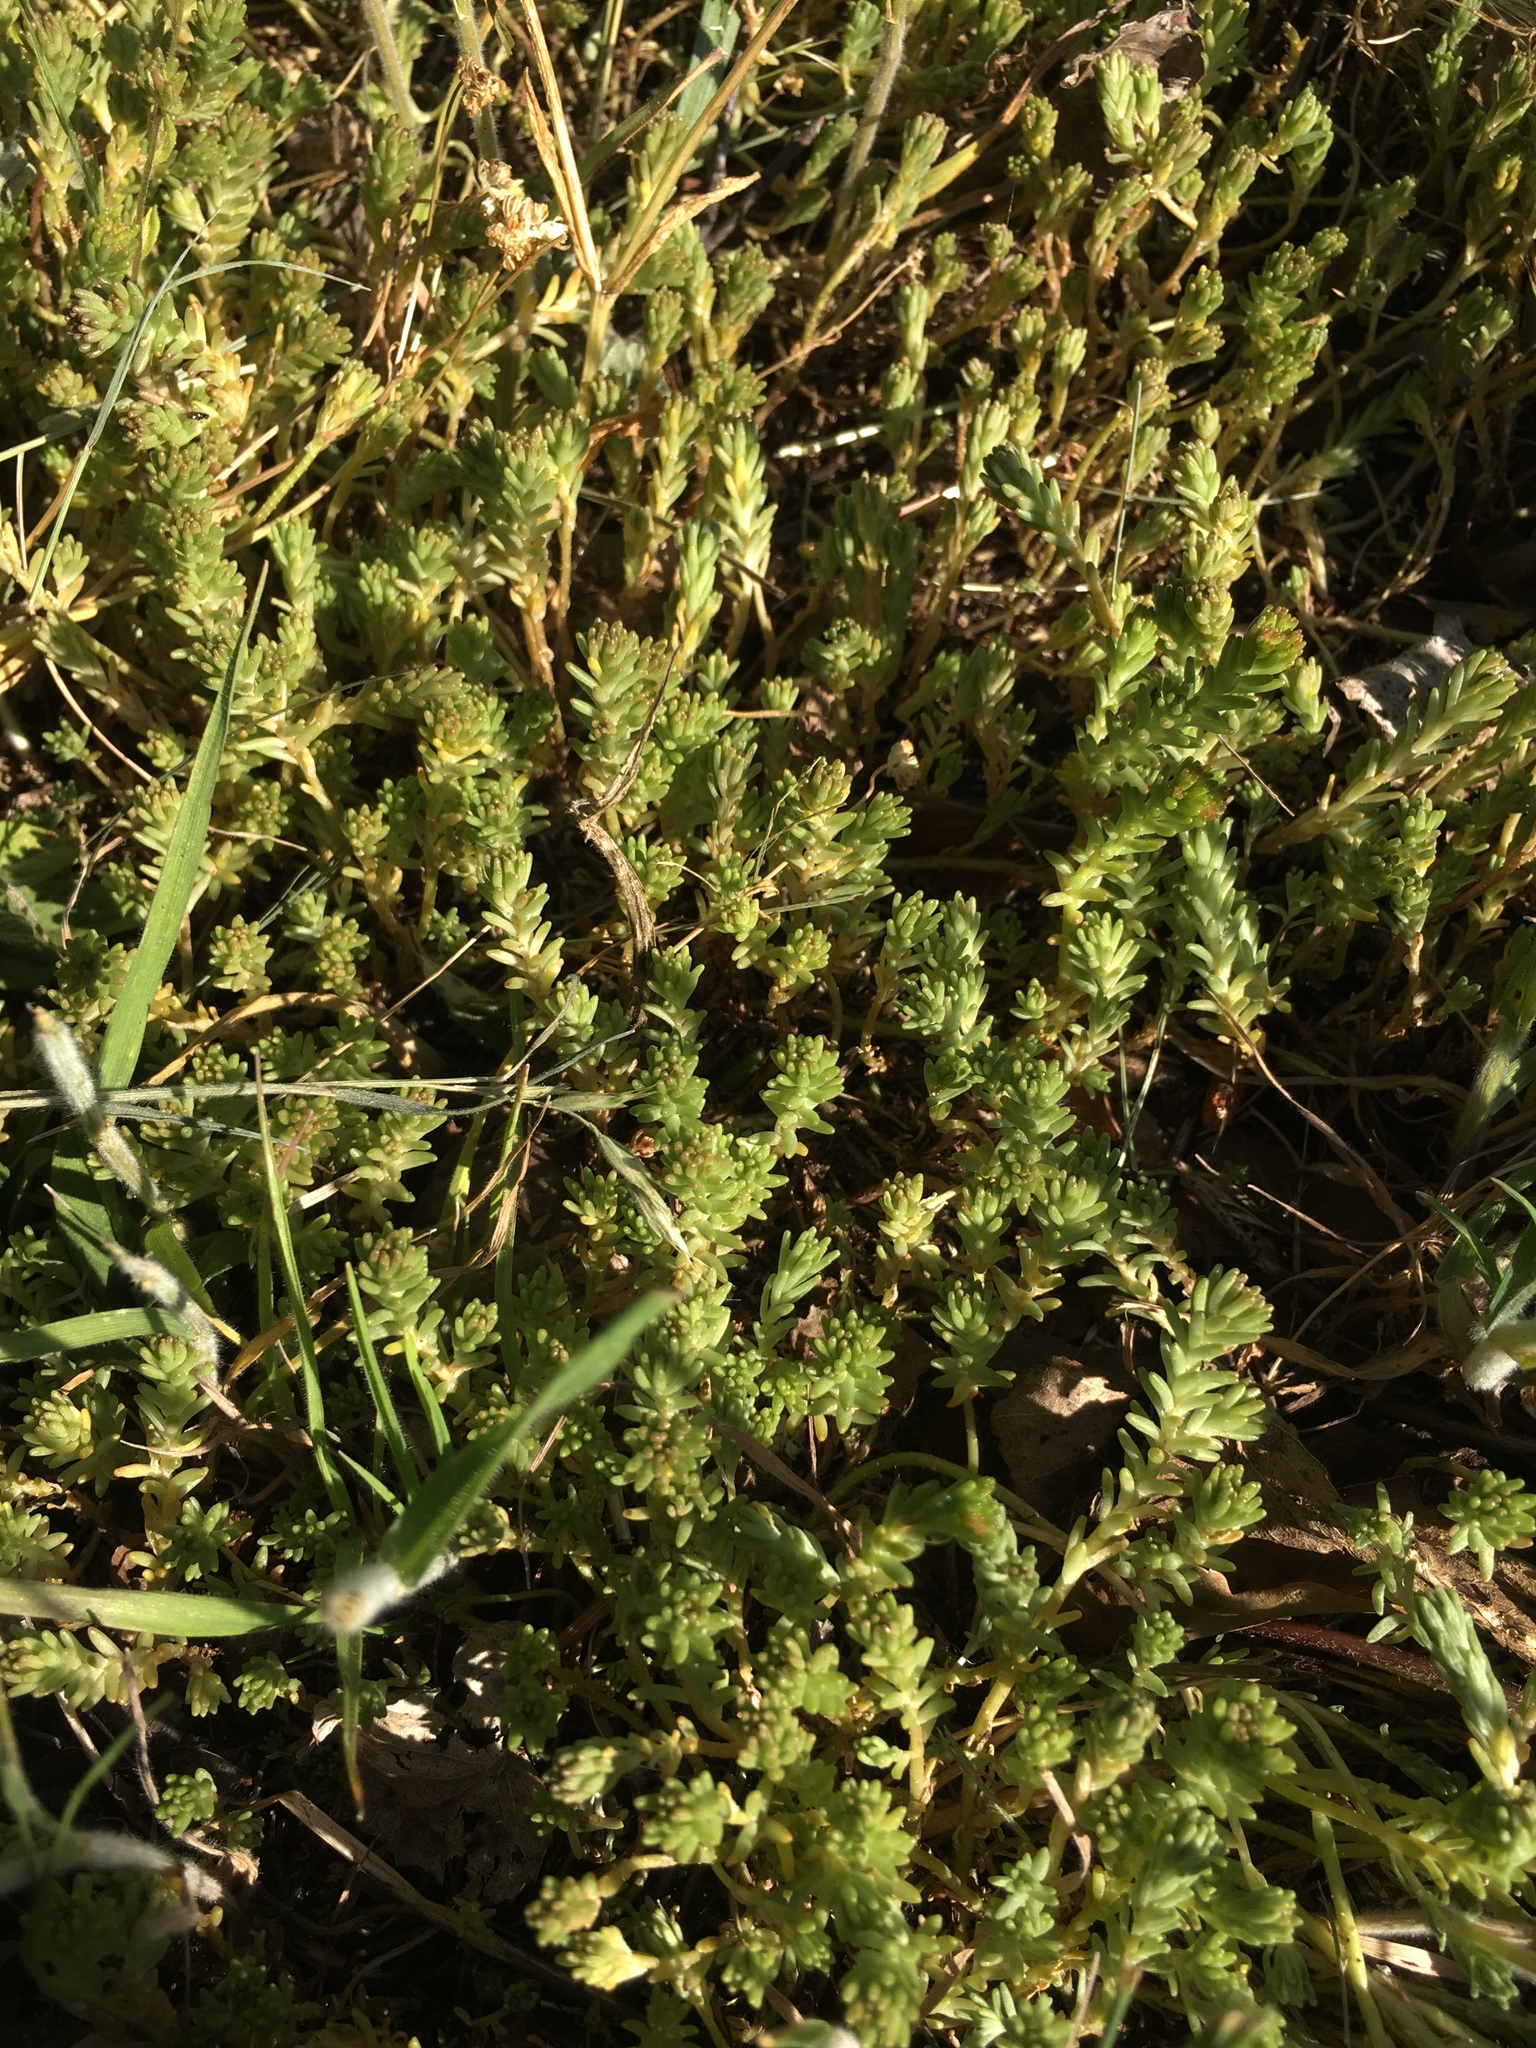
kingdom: Plantae
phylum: Tracheophyta
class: Magnoliopsida
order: Saxifragales
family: Crassulaceae
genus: Sedum
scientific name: Sedum sexangulare
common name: Tasteless stonecrop
